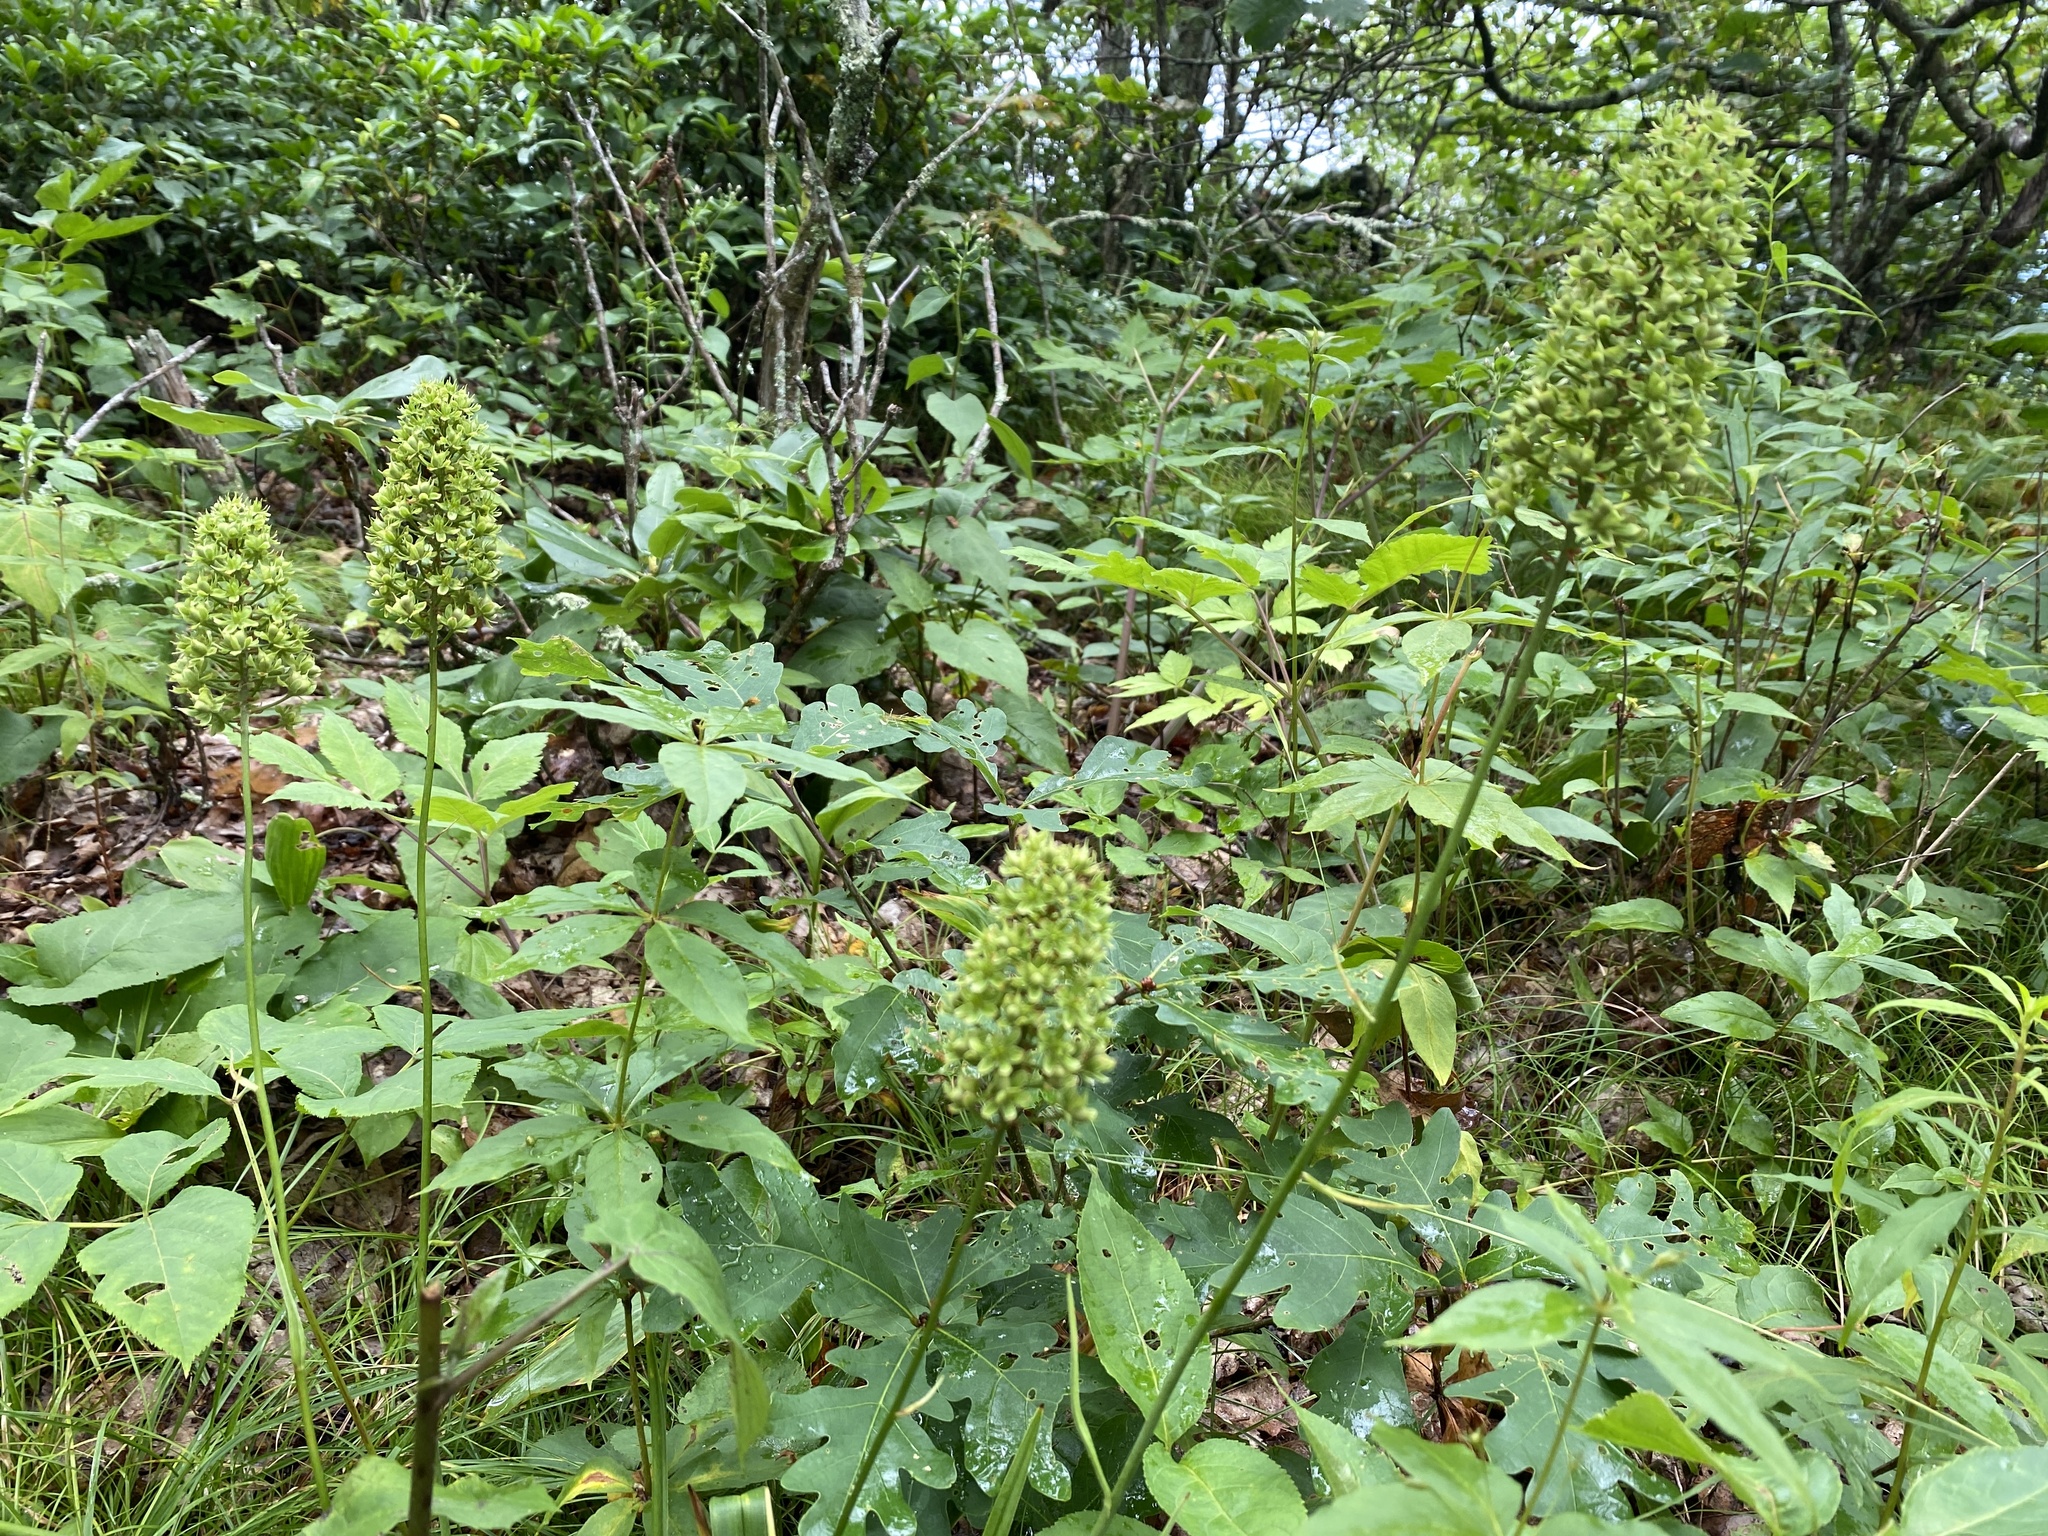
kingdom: Plantae
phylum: Tracheophyta
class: Liliopsida
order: Liliales
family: Melanthiaceae
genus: Amianthium
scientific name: Amianthium muscitoxicum
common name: Fly-poison
